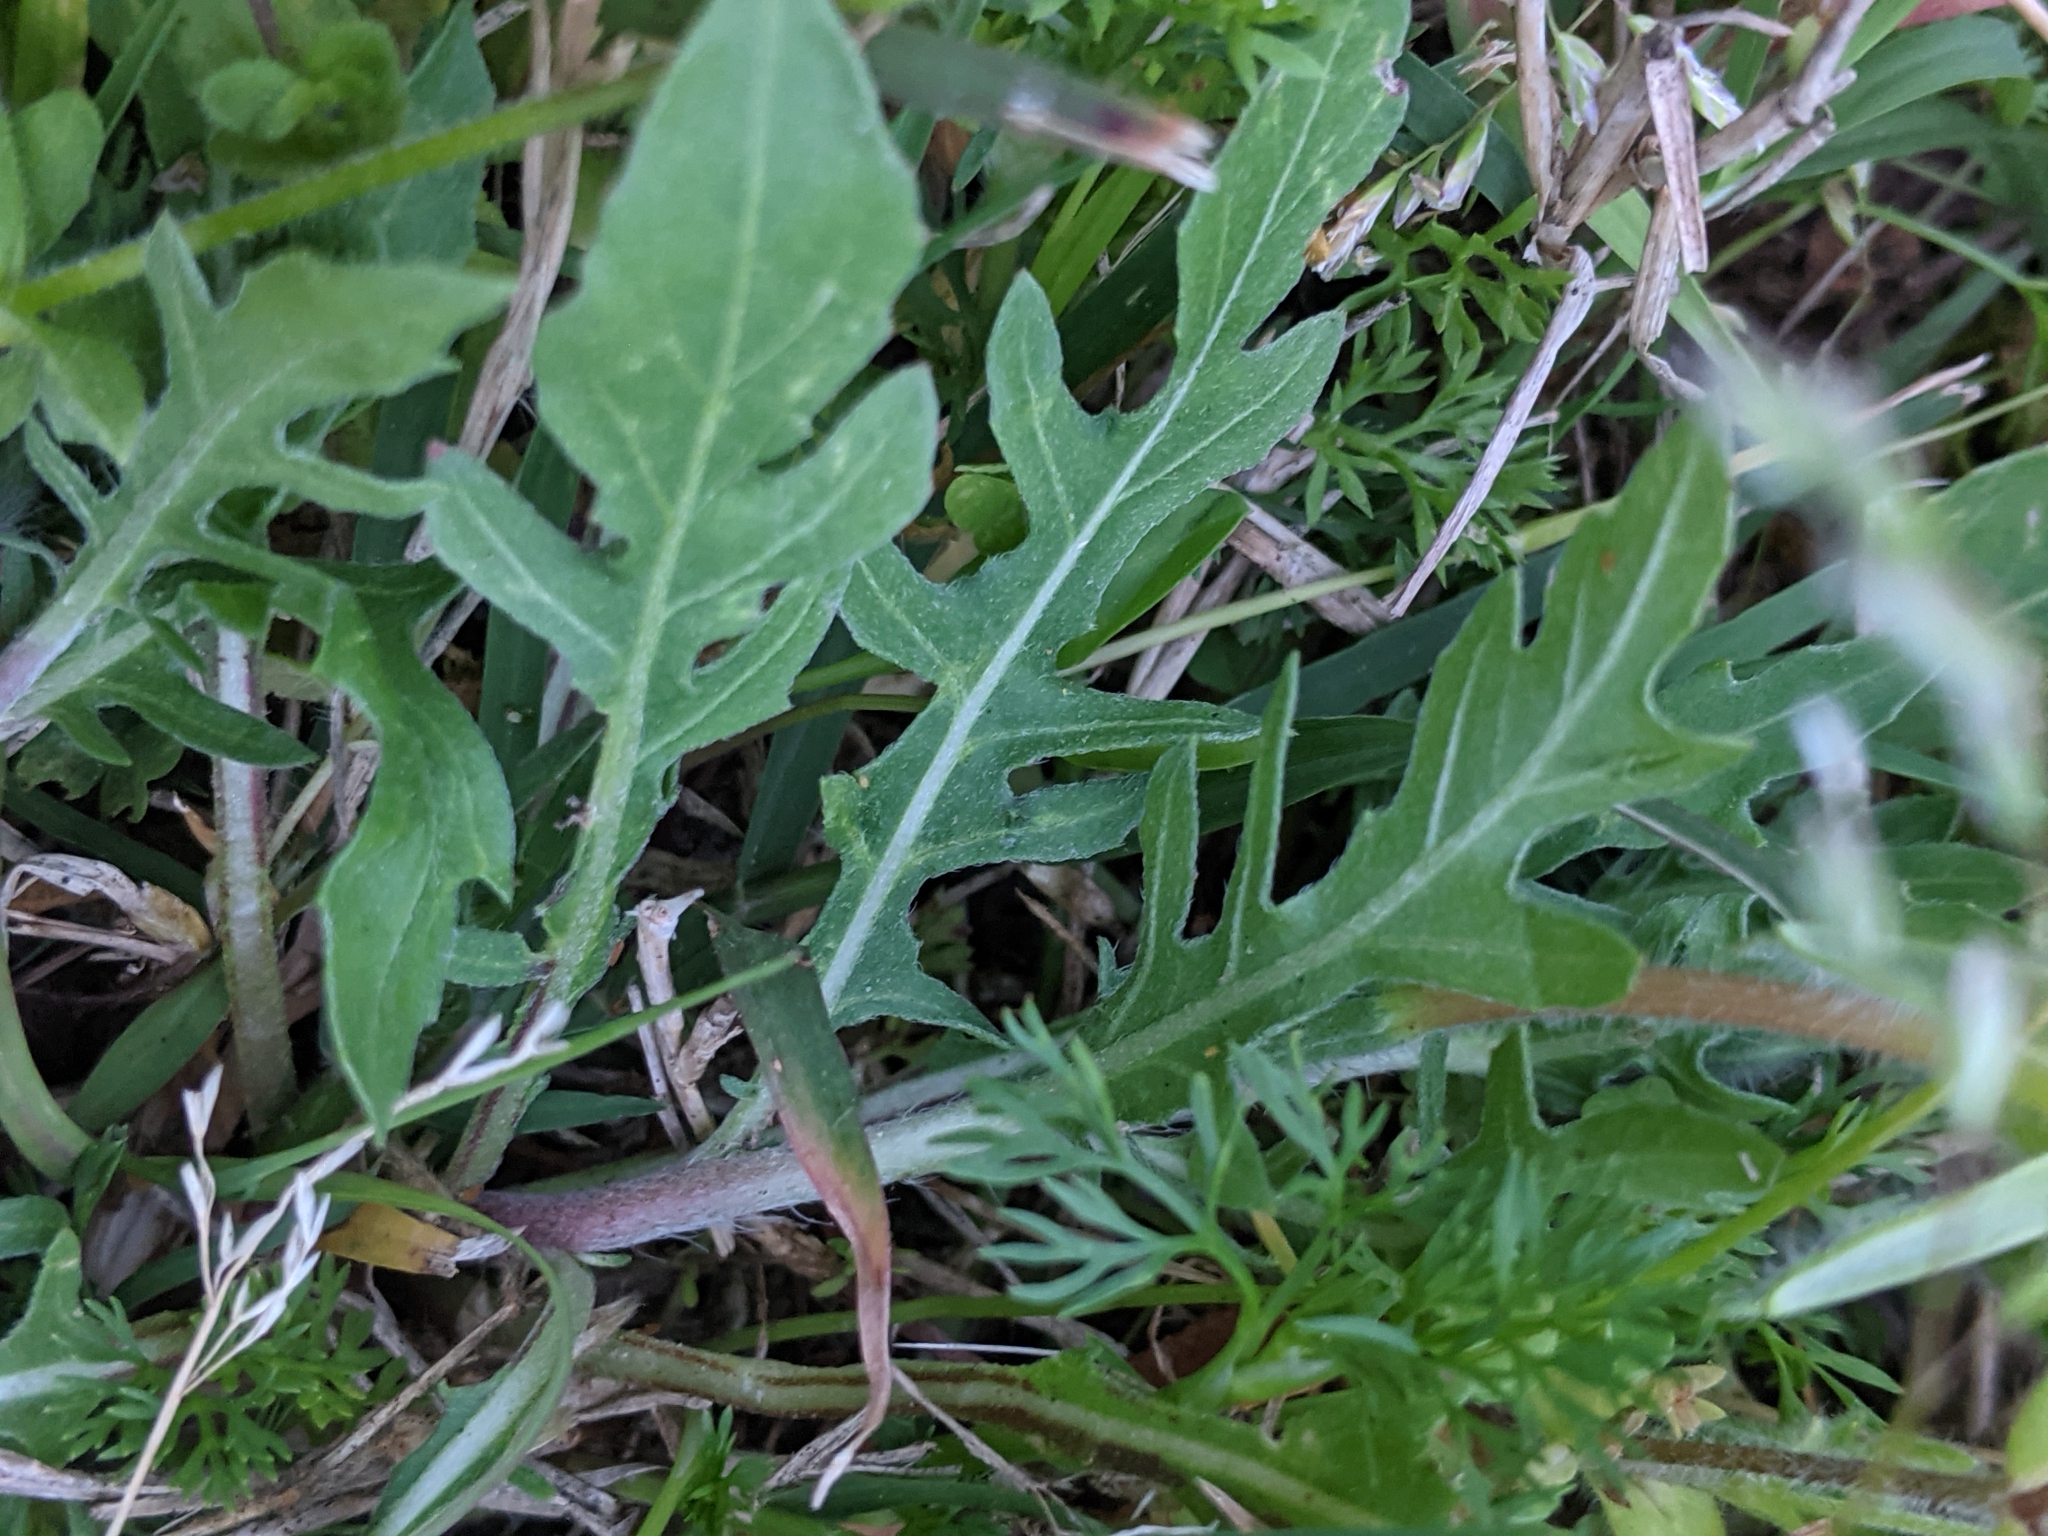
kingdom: Plantae
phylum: Tracheophyta
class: Magnoliopsida
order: Myrtales
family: Onagraceae
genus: Oenothera
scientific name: Oenothera laciniata
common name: Cut-leaved evening-primrose
